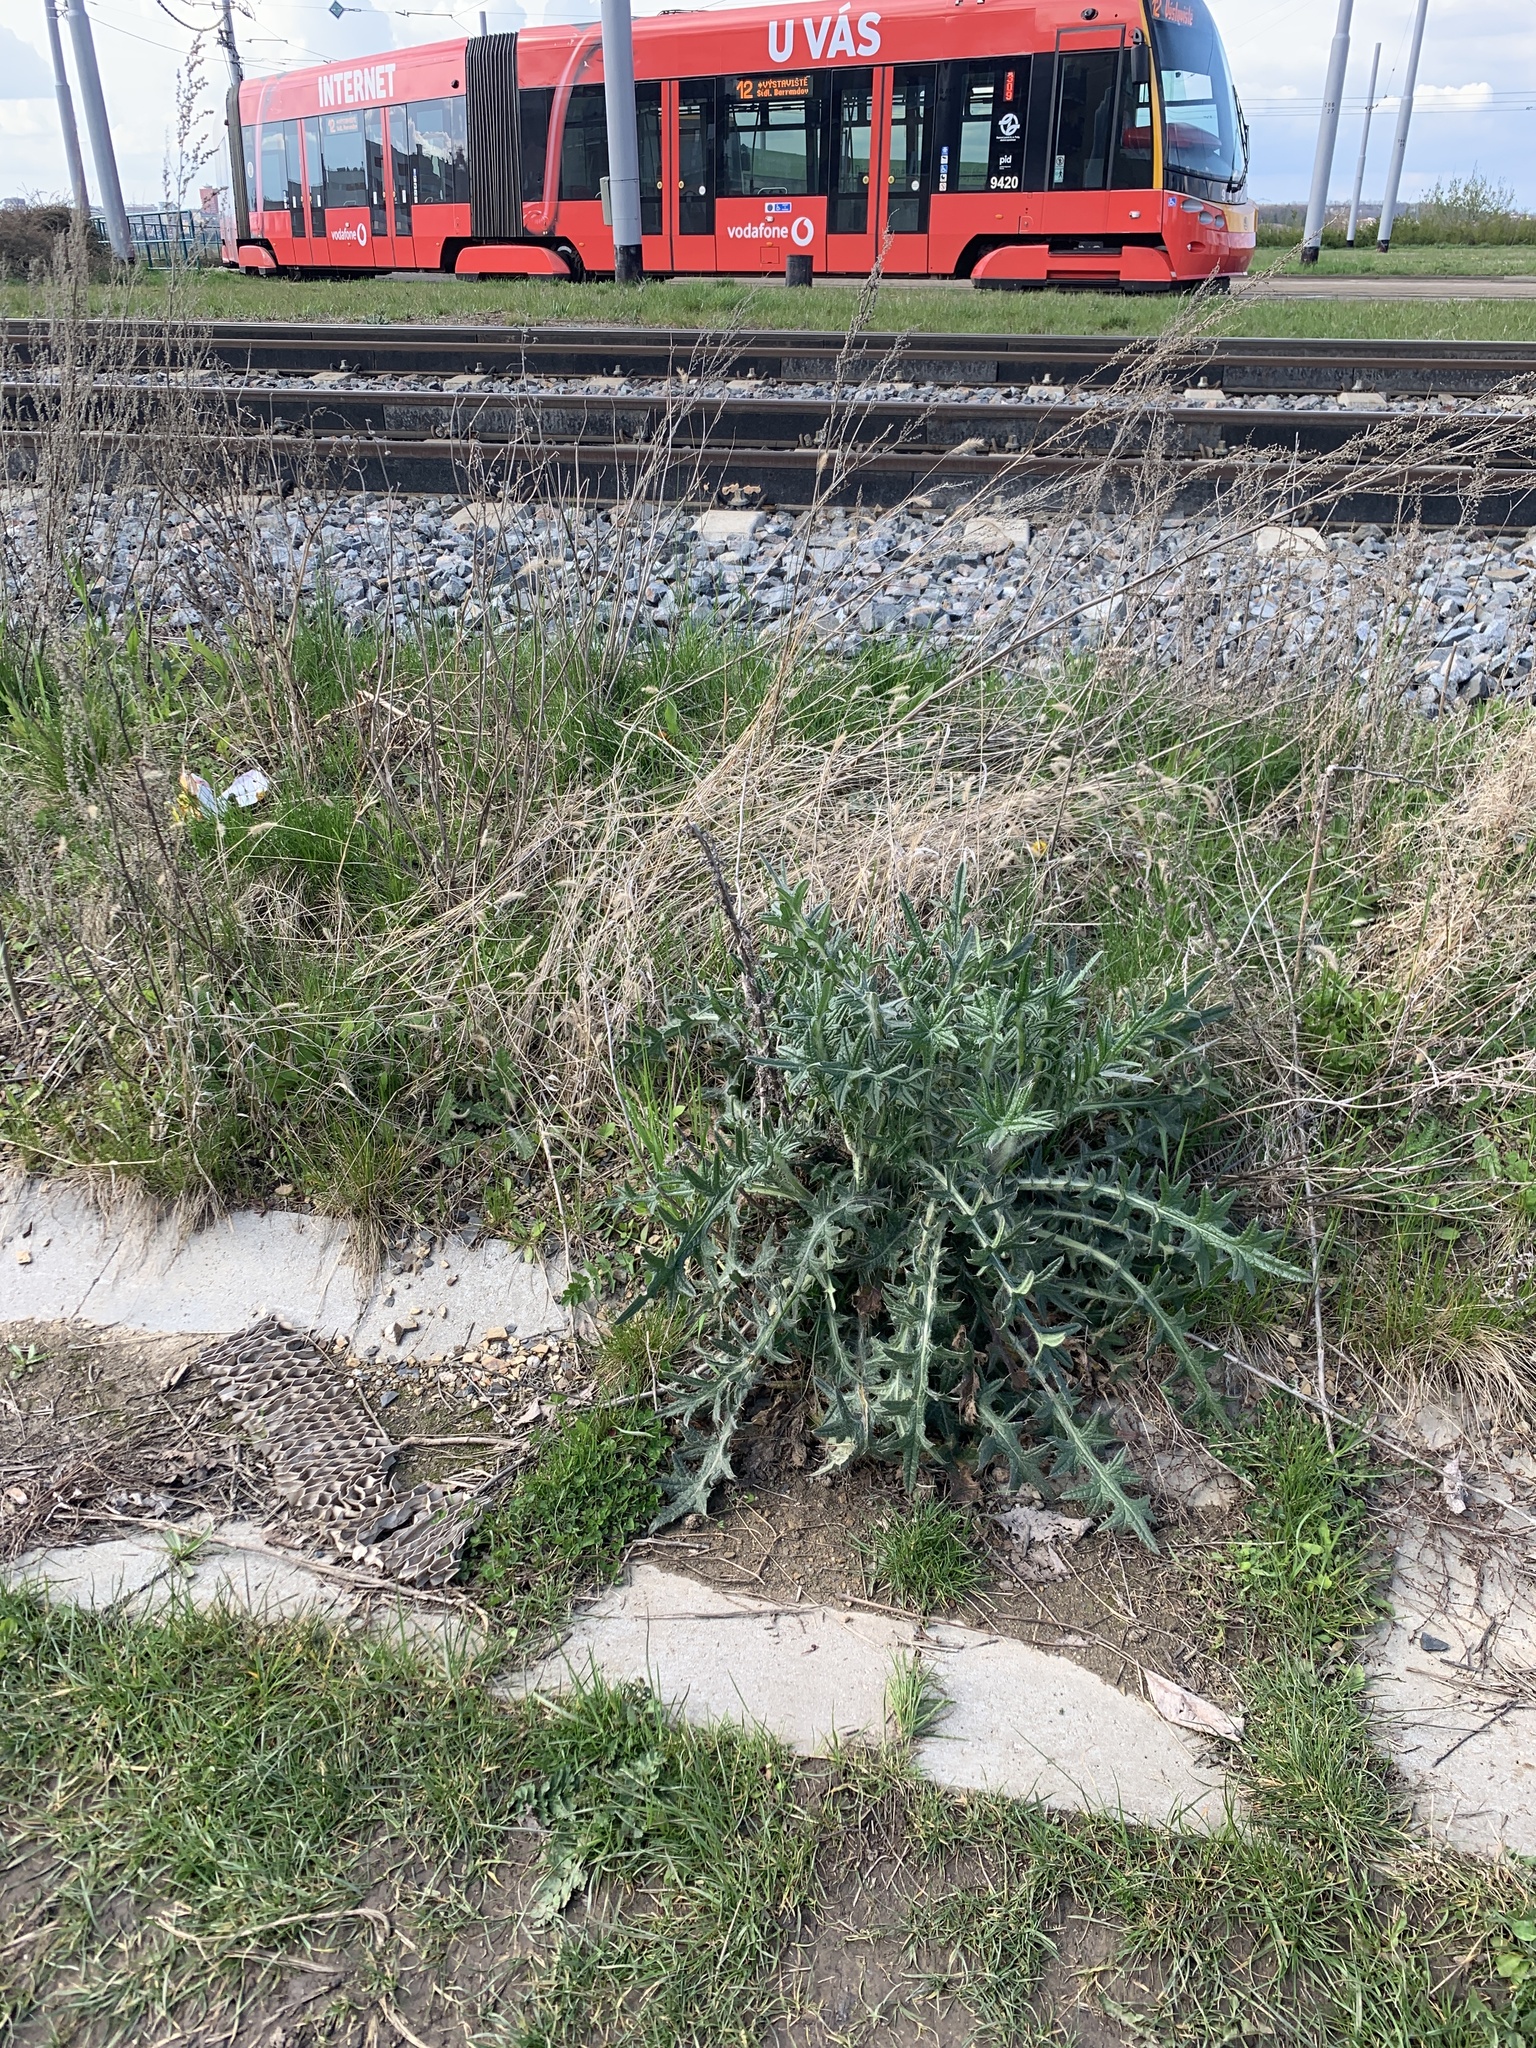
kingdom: Plantae
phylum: Tracheophyta
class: Magnoliopsida
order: Asterales
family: Asteraceae
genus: Cirsium
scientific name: Cirsium vulgare
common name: Bull thistle
